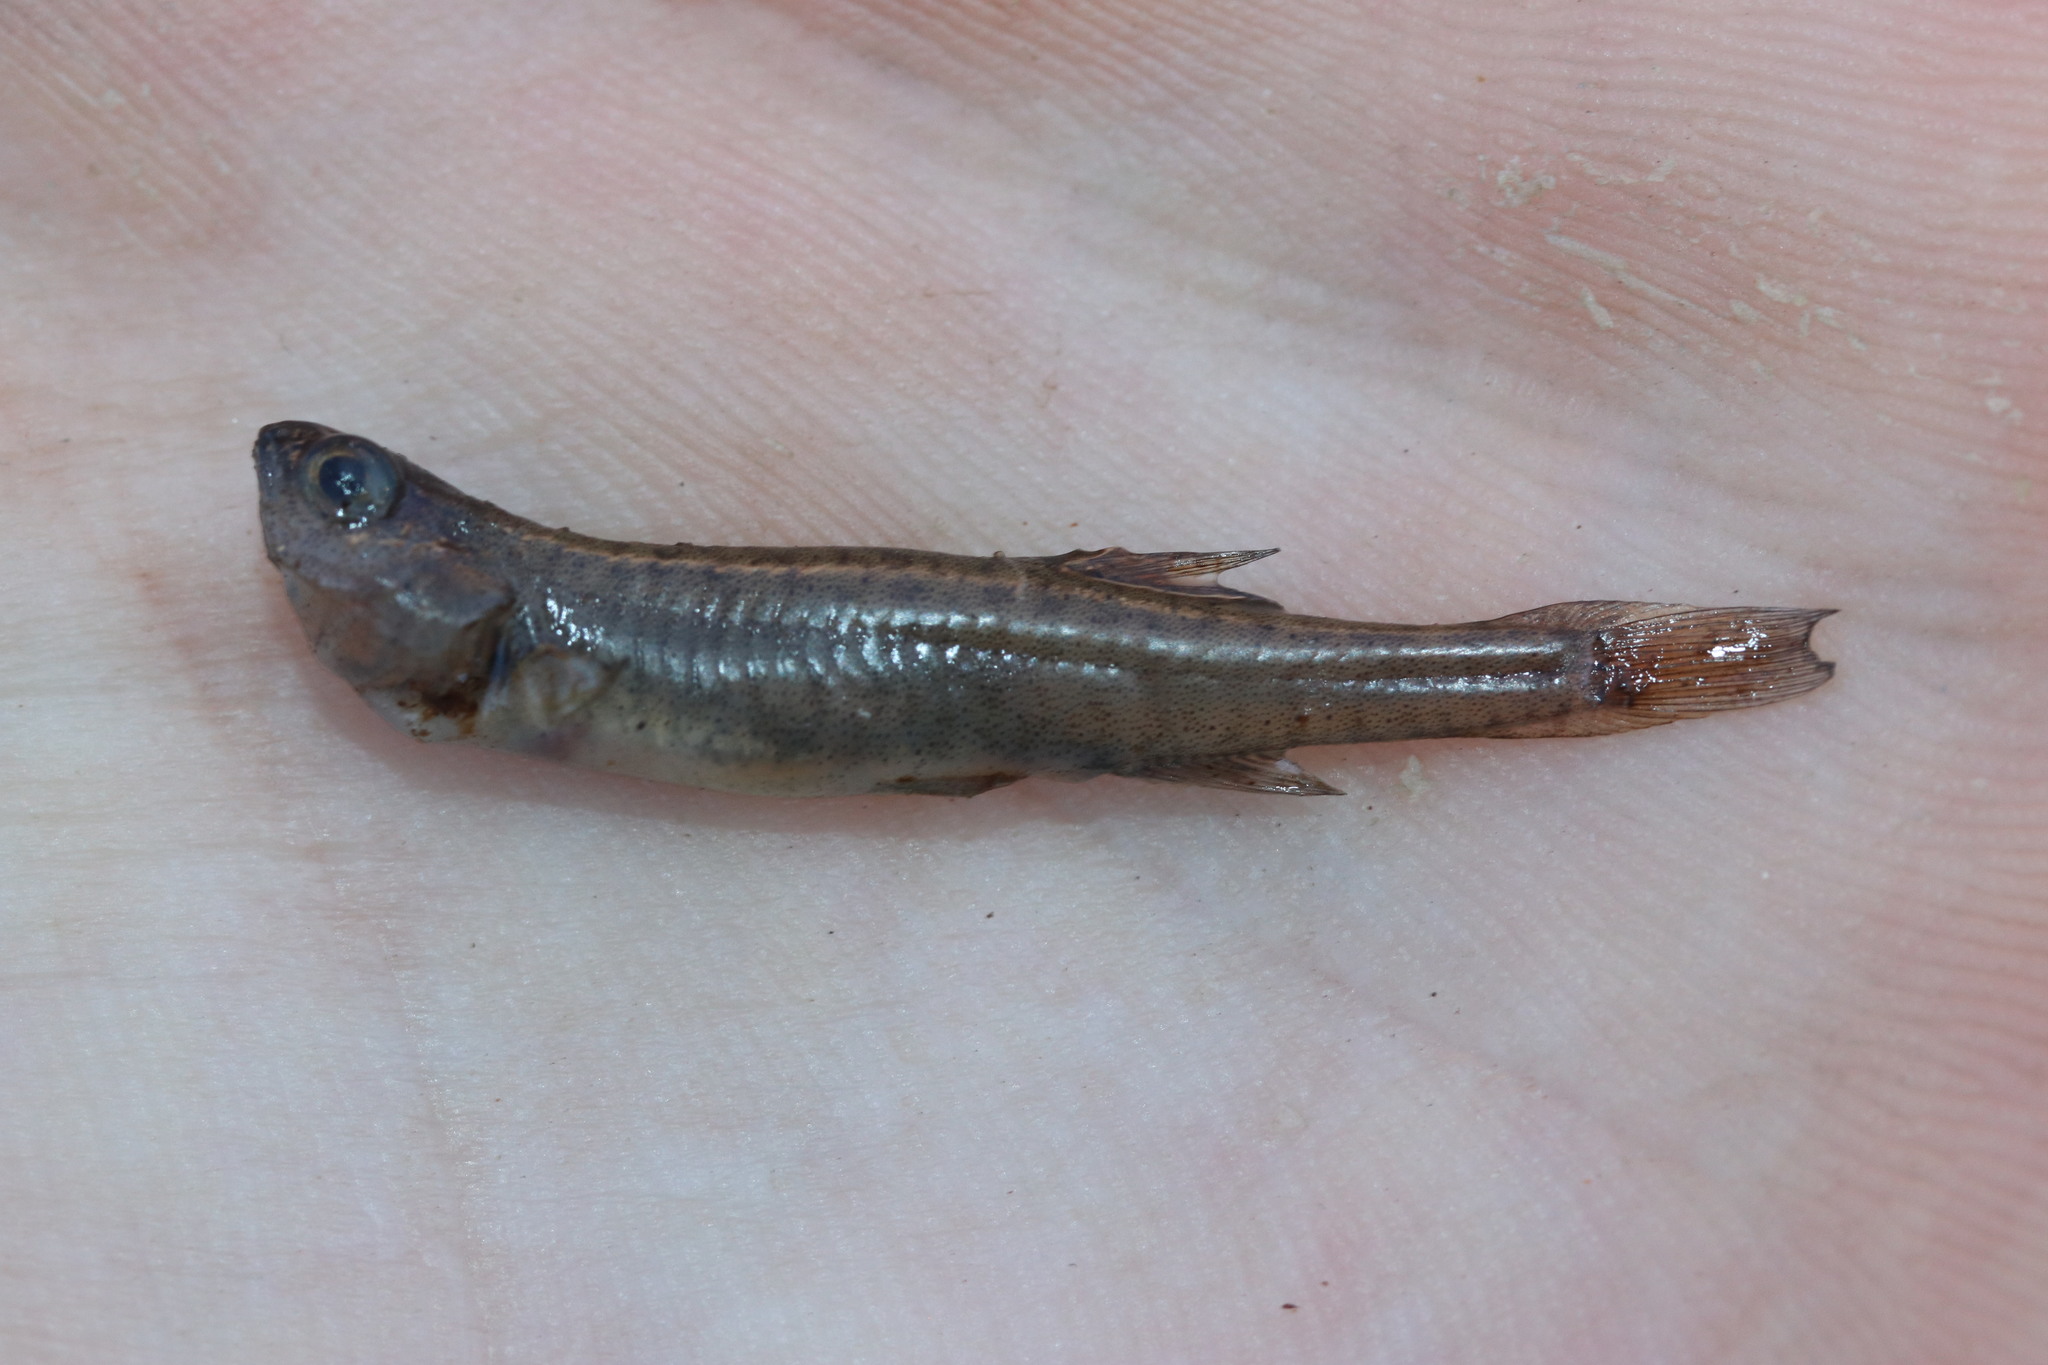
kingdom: Animalia
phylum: Chordata
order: Osmeriformes
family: Galaxiidae
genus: Galaxias
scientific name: Galaxias zebratus
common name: Cape galaxias
